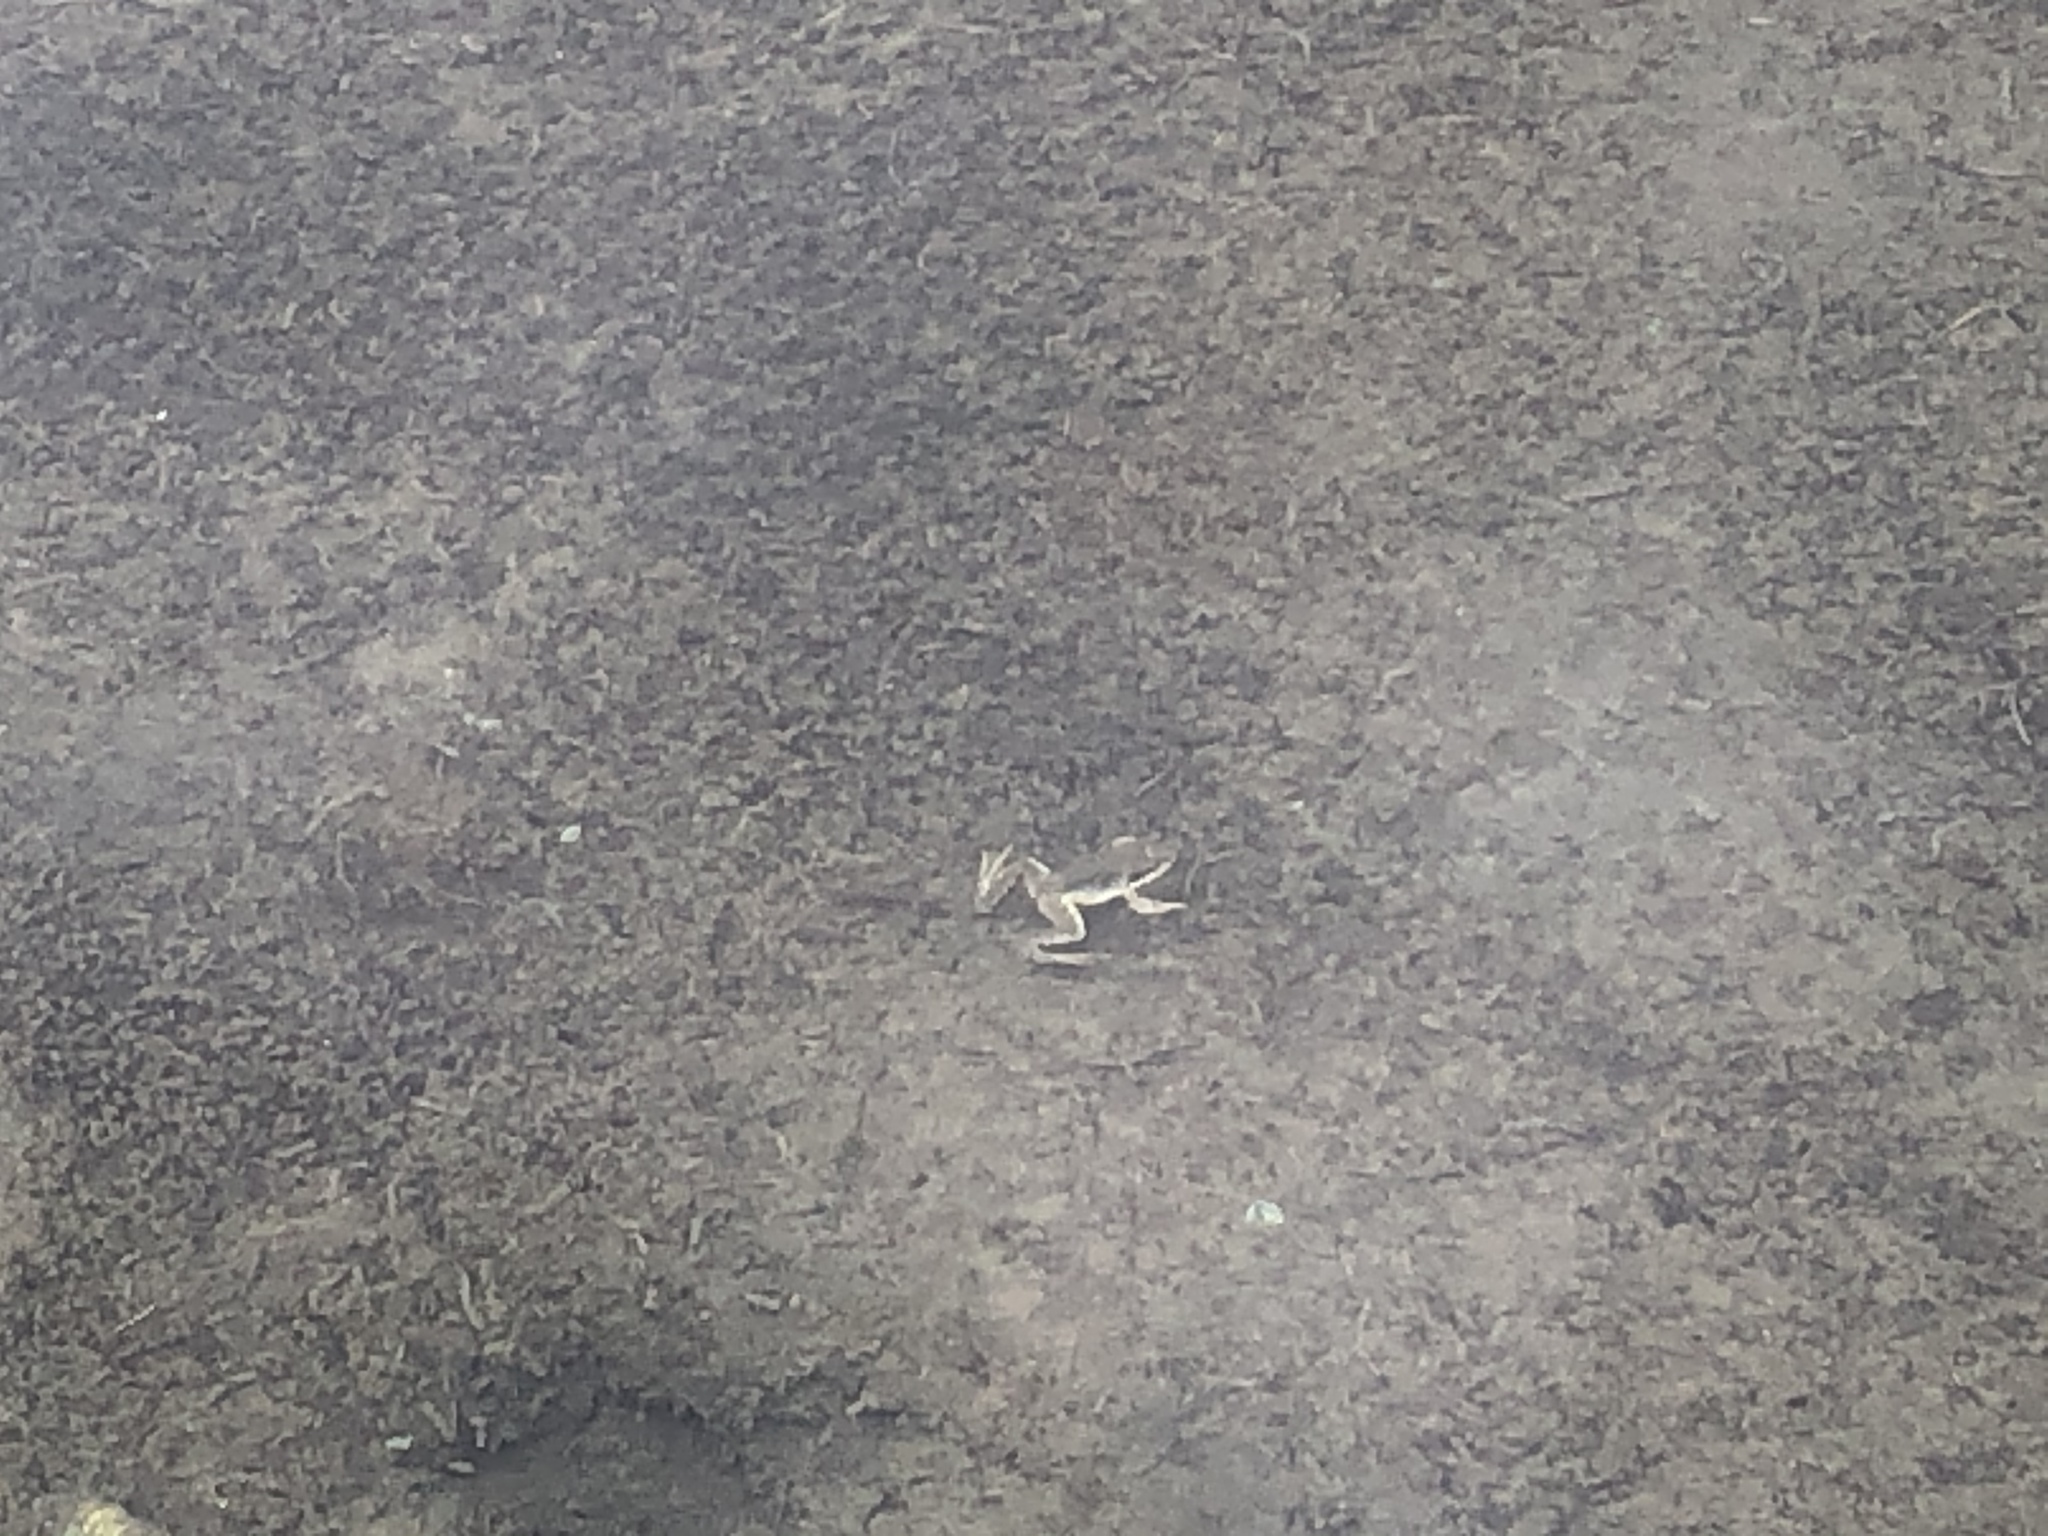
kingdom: Animalia
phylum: Chordata
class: Amphibia
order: Anura
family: Ranidae
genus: Rana
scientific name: Rana temporaria
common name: Common frog
